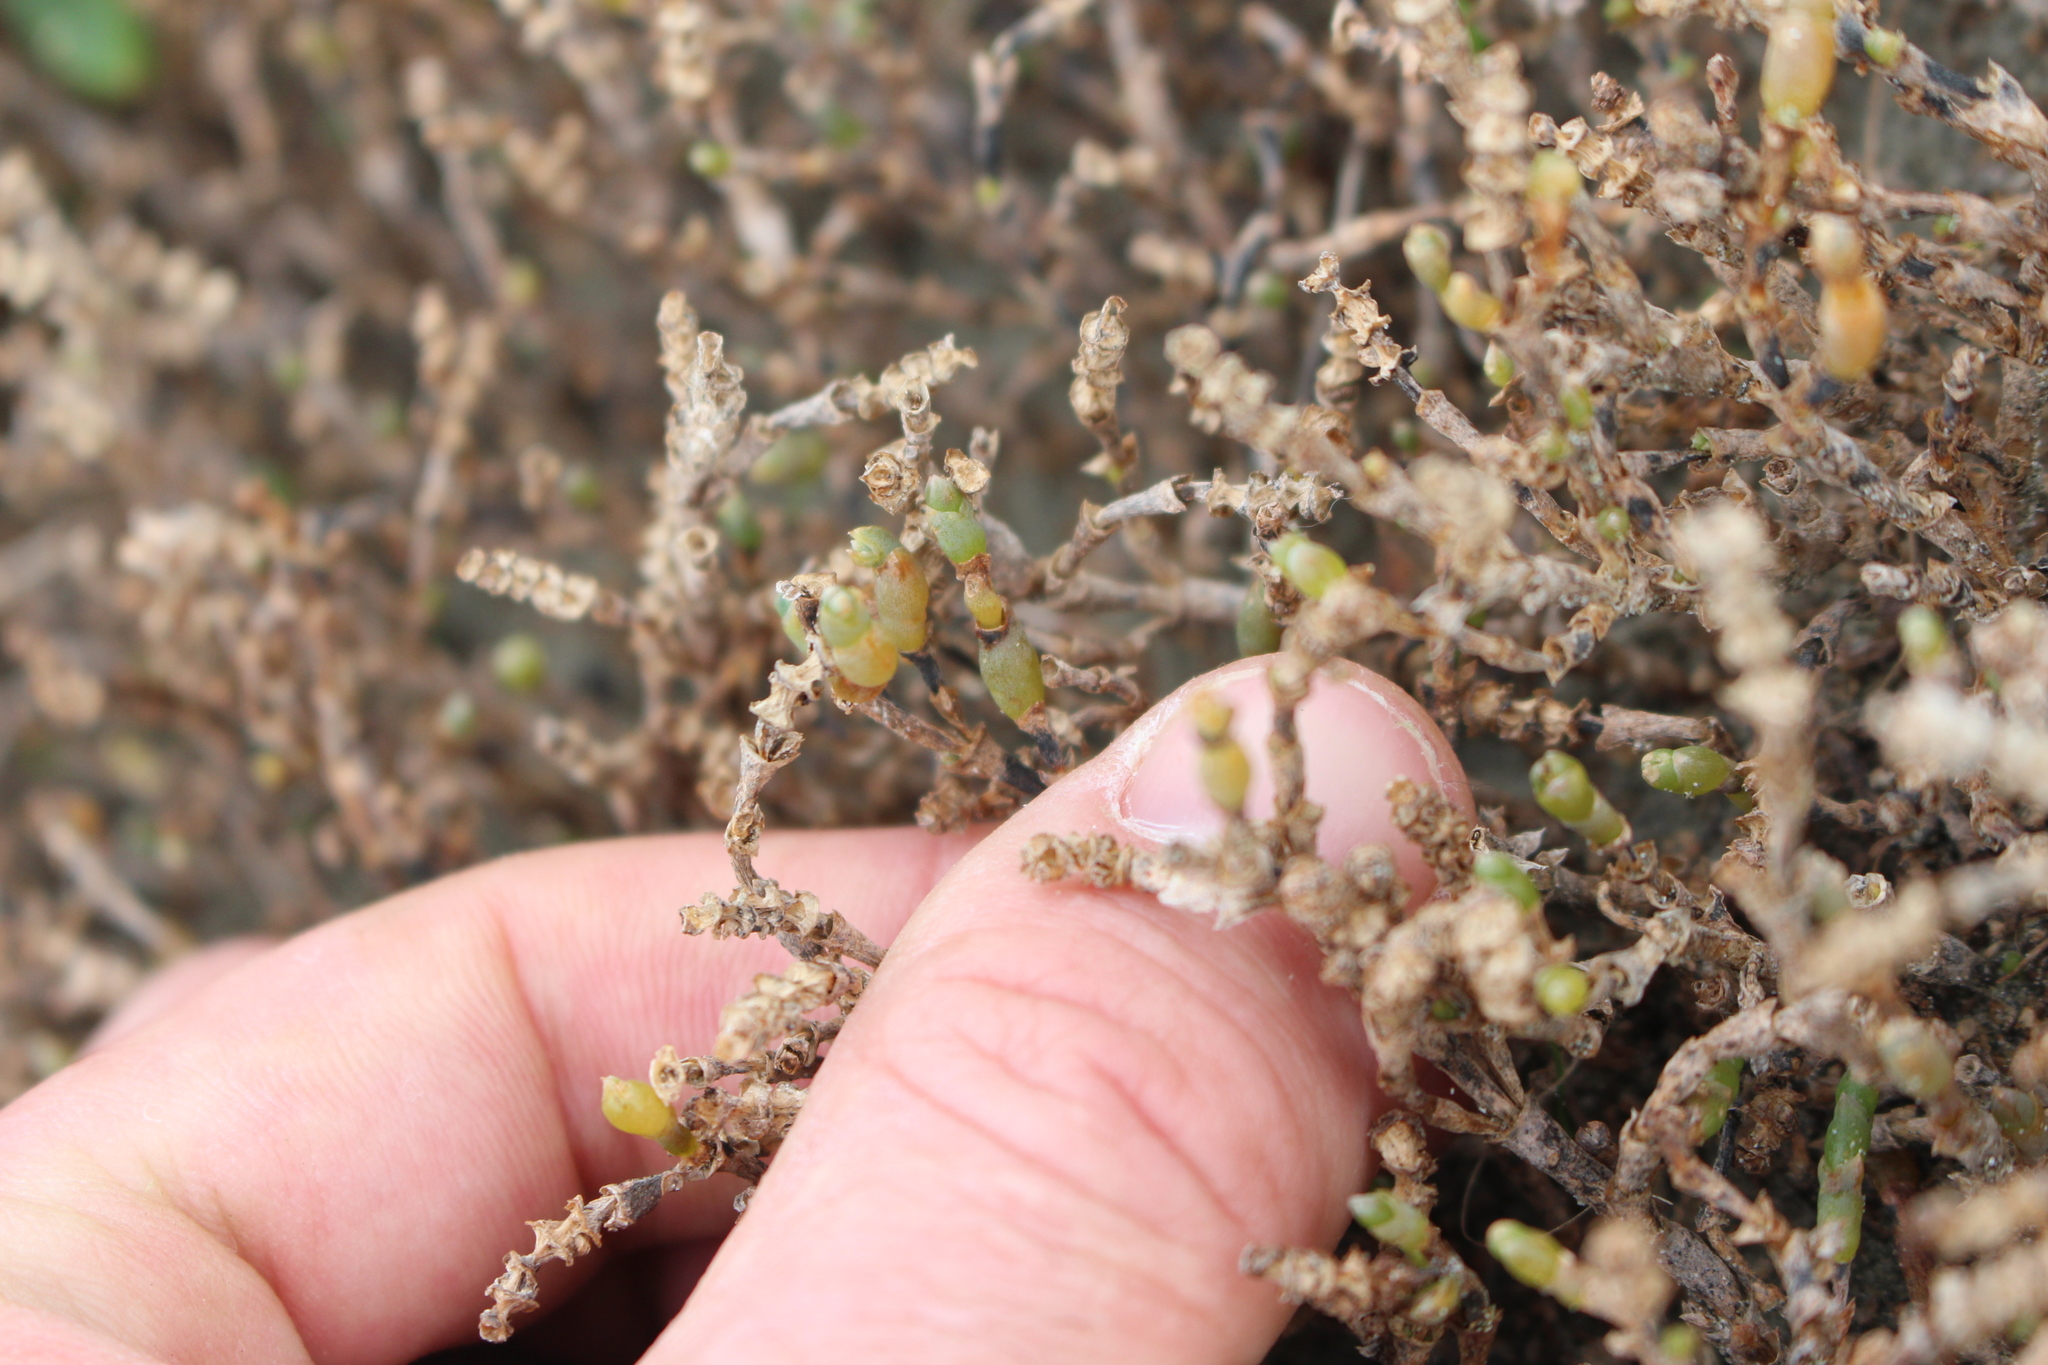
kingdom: Plantae
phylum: Tracheophyta
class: Magnoliopsida
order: Caryophyllales
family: Amaranthaceae
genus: Salicornia
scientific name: Salicornia quinqueflora
